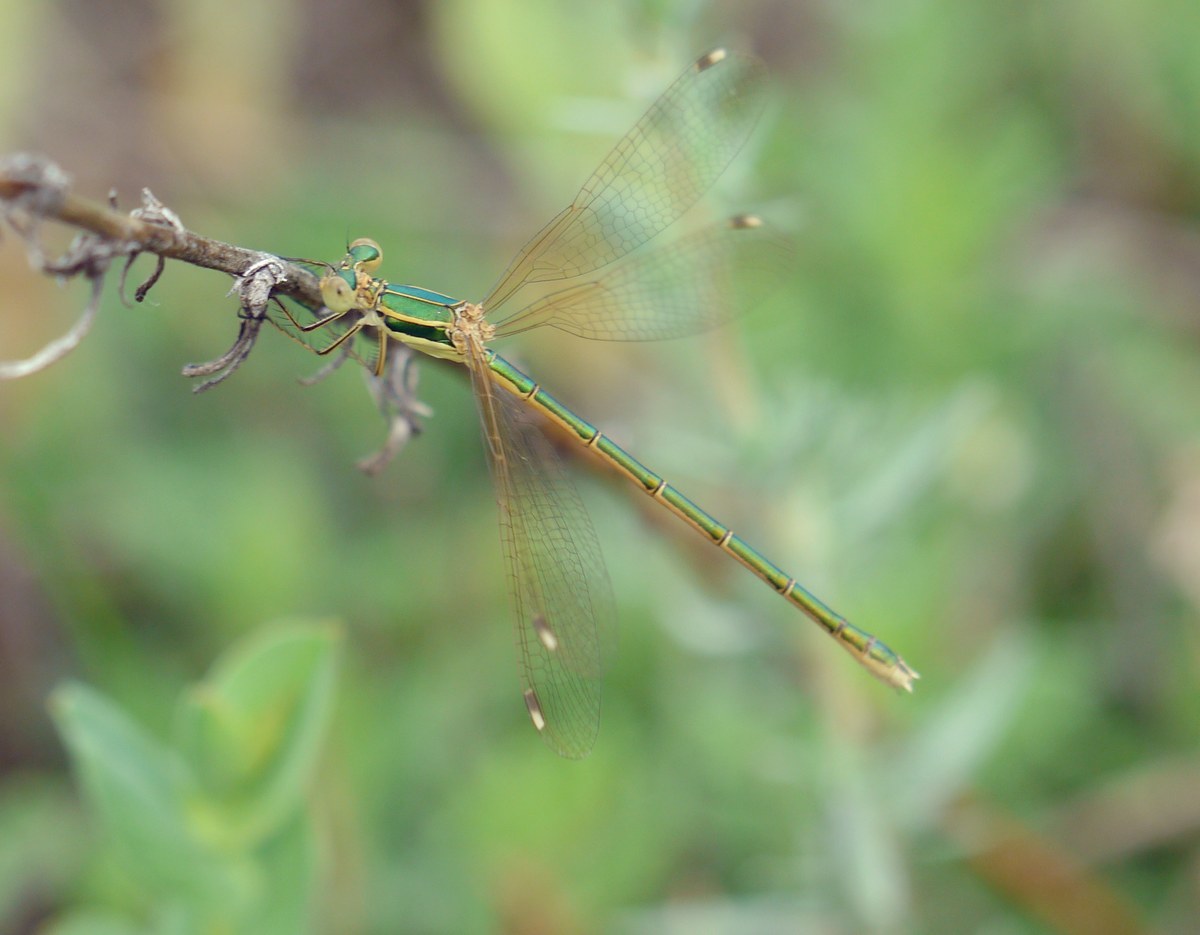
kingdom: Animalia
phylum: Arthropoda
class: Insecta
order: Odonata
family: Lestidae
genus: Lestes
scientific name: Lestes barbarus
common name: Migrant spreadwing
